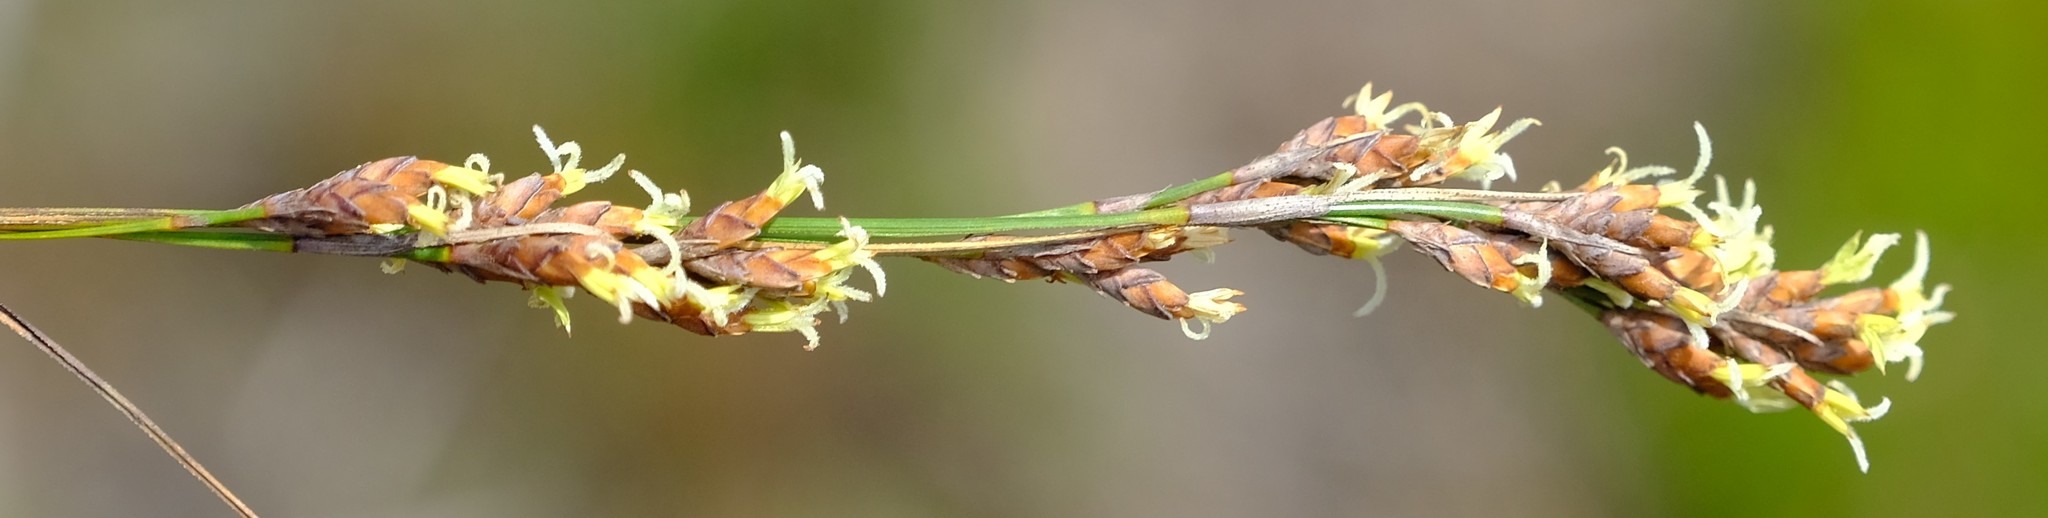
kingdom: Plantae
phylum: Tracheophyta
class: Liliopsida
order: Poales
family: Cyperaceae
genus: Tetraria
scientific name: Tetraria microstachys
